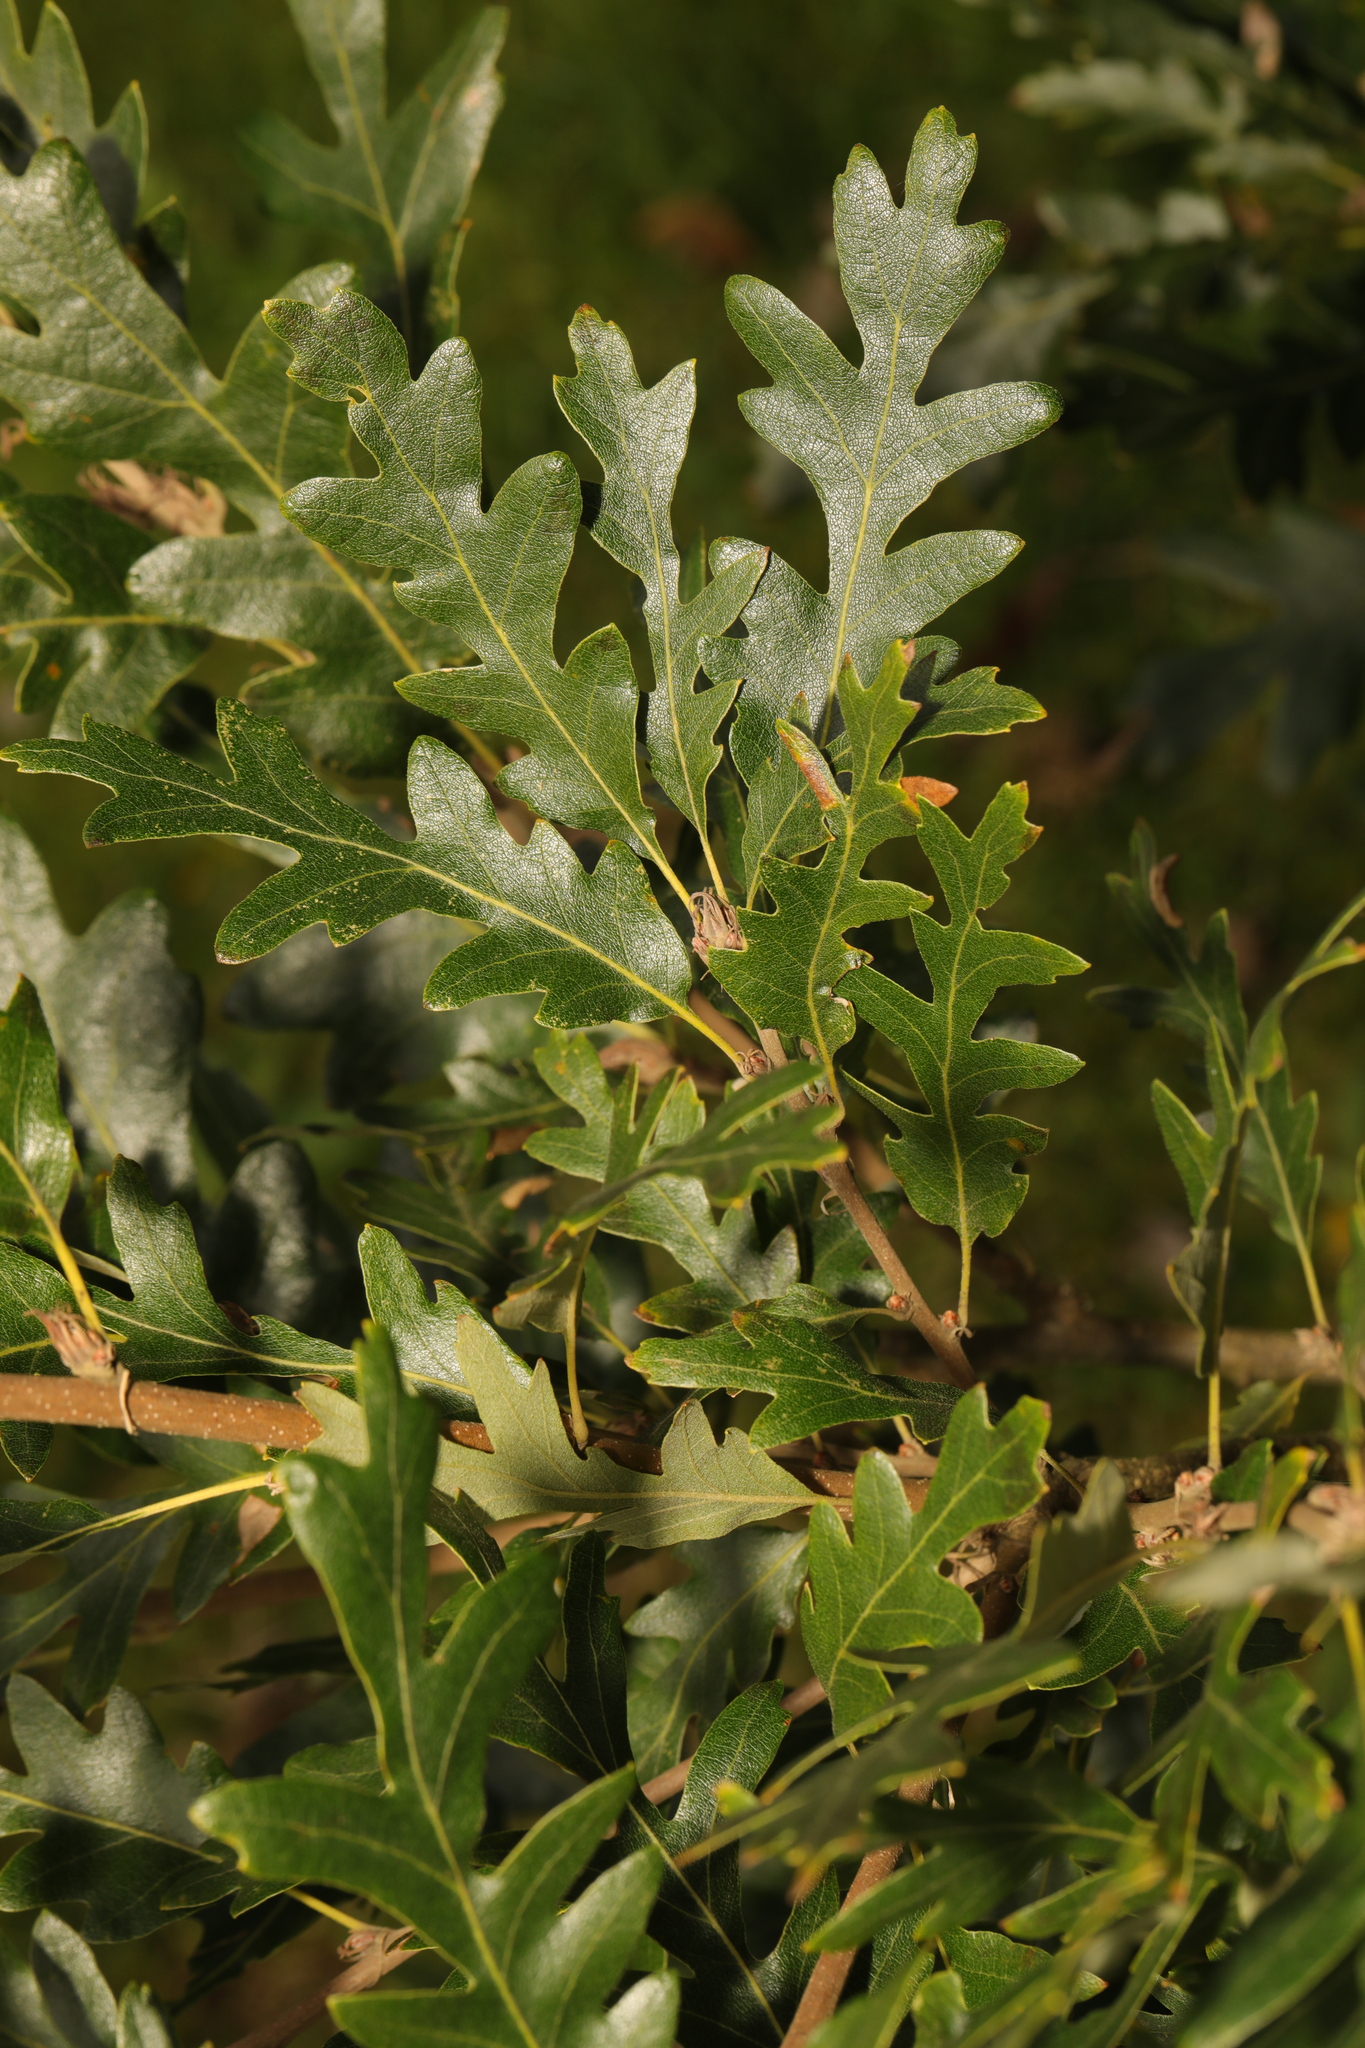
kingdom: Plantae
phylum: Tracheophyta
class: Magnoliopsida
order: Fagales
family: Fagaceae
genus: Quercus
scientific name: Quercus cerris
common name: Turkey oak
